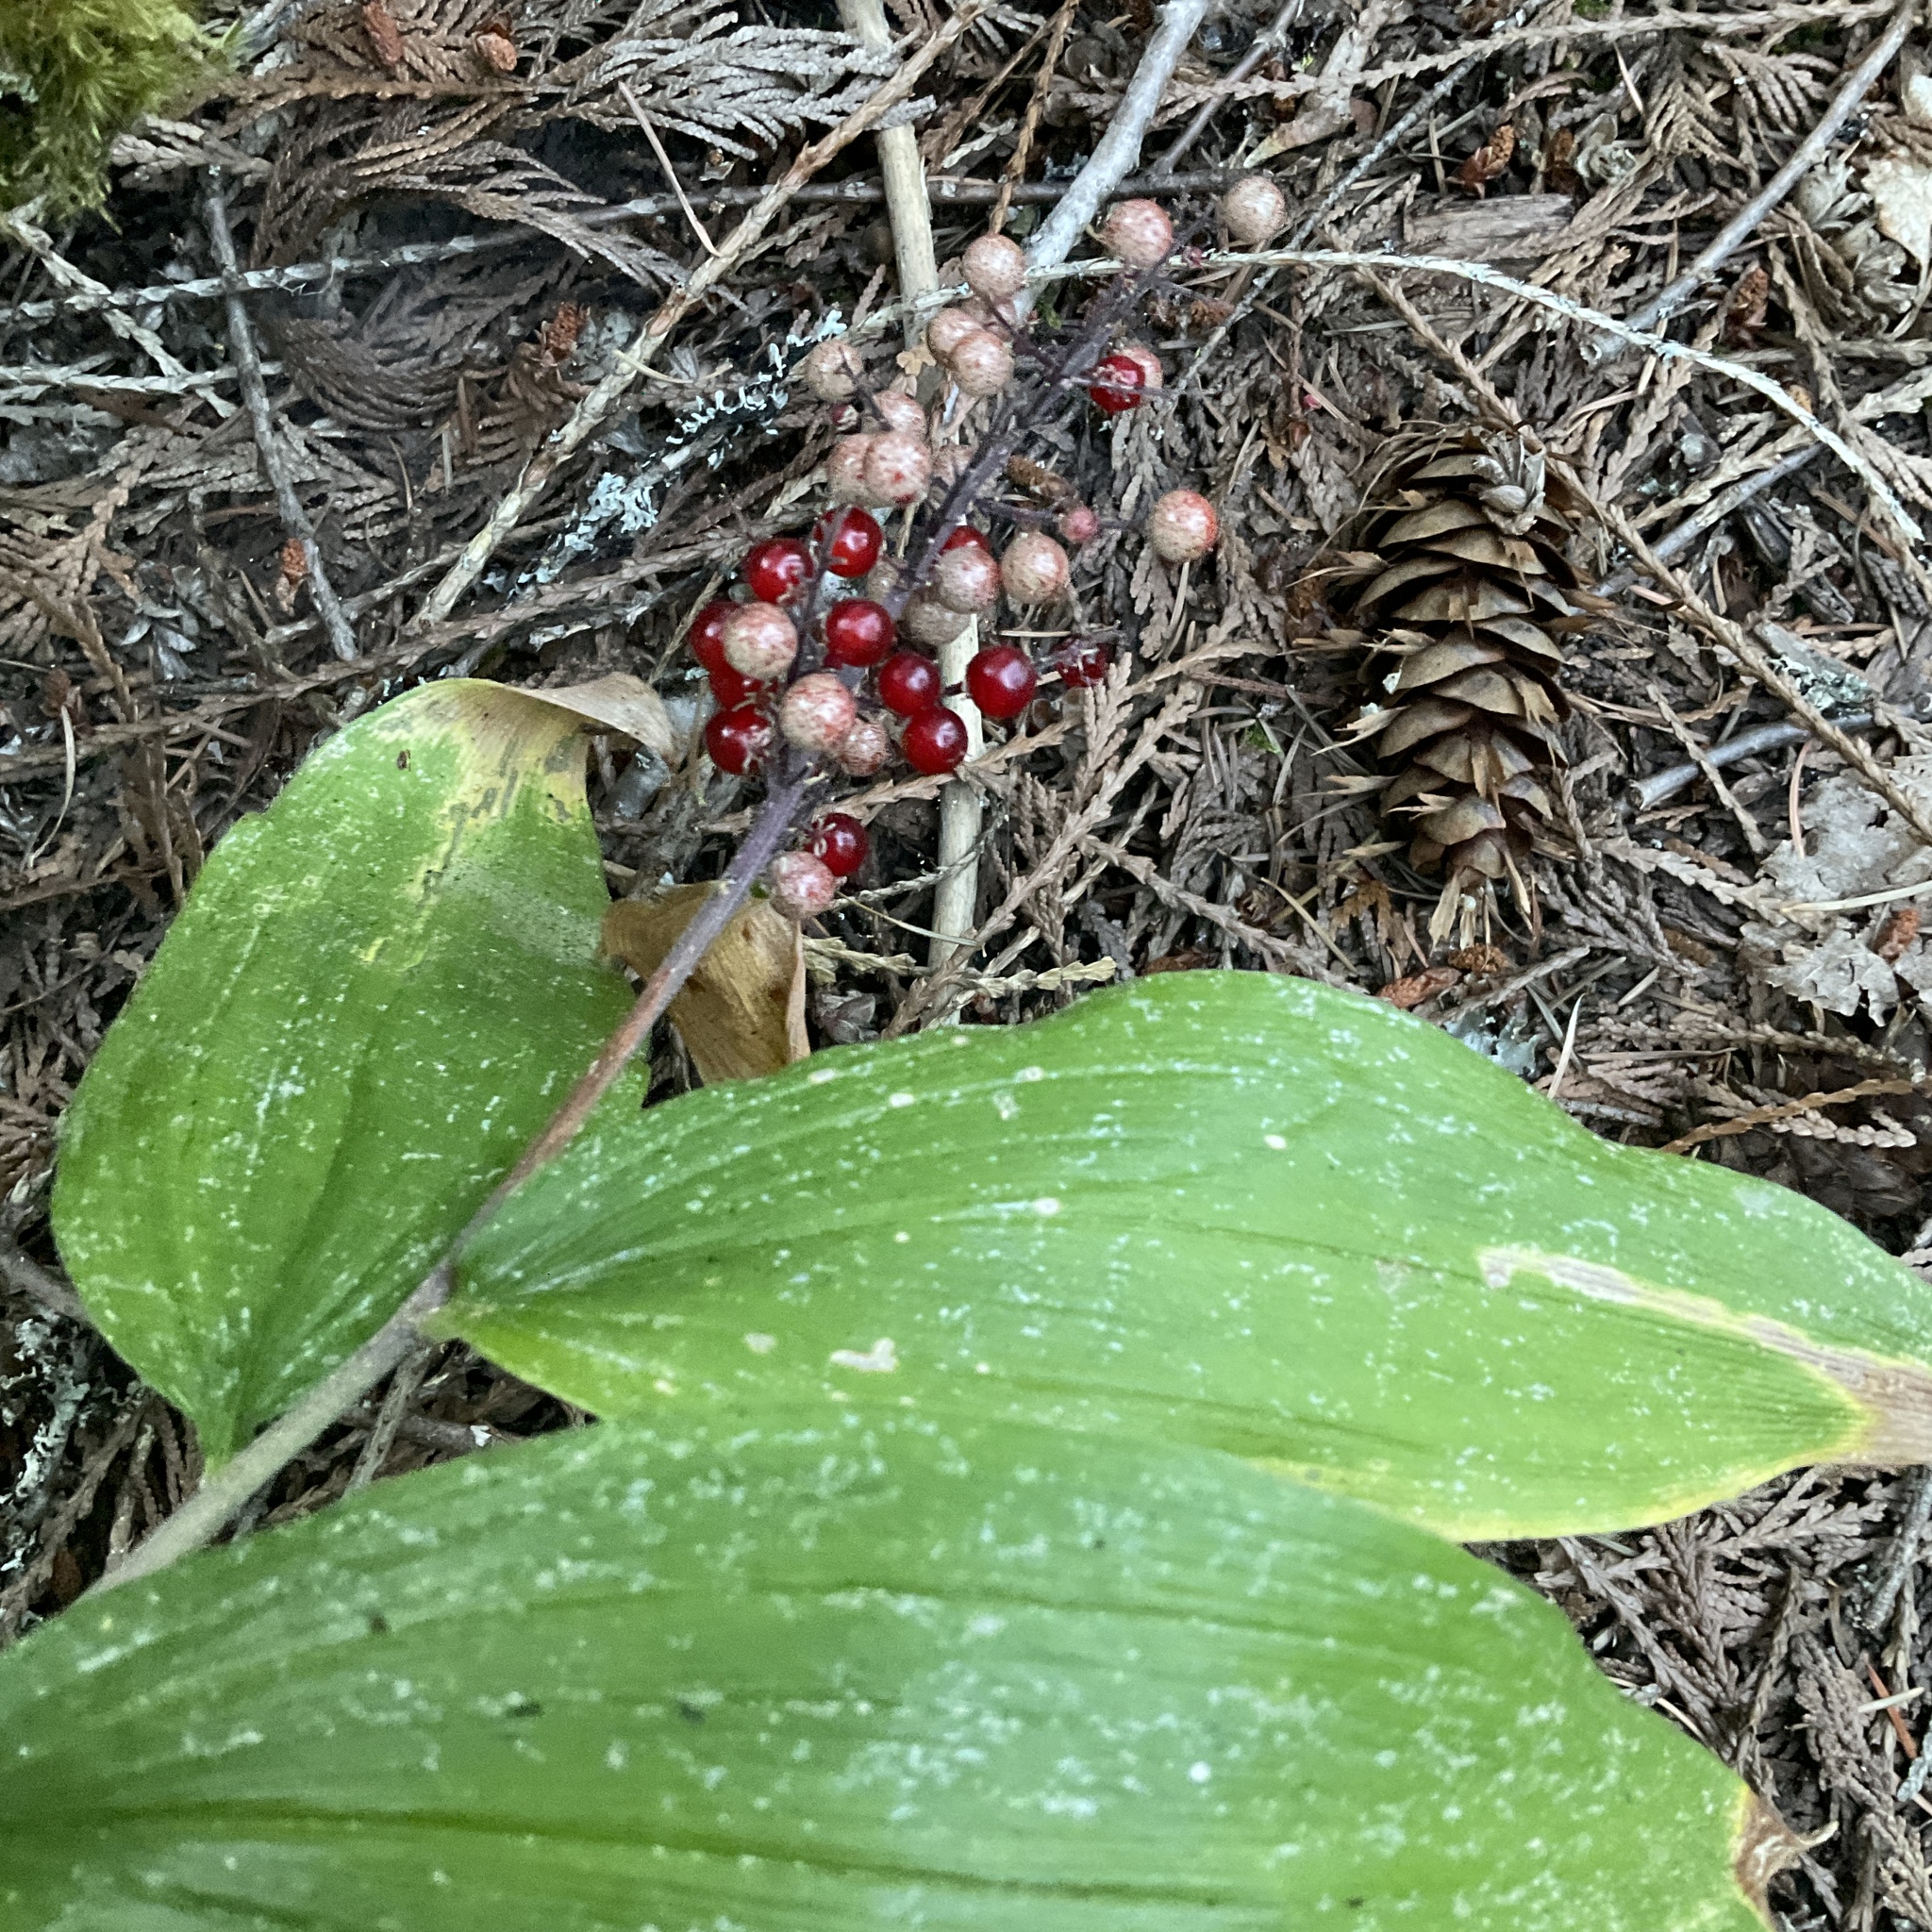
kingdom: Plantae
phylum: Tracheophyta
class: Liliopsida
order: Asparagales
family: Asparagaceae
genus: Maianthemum
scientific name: Maianthemum racemosum
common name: False spikenard
